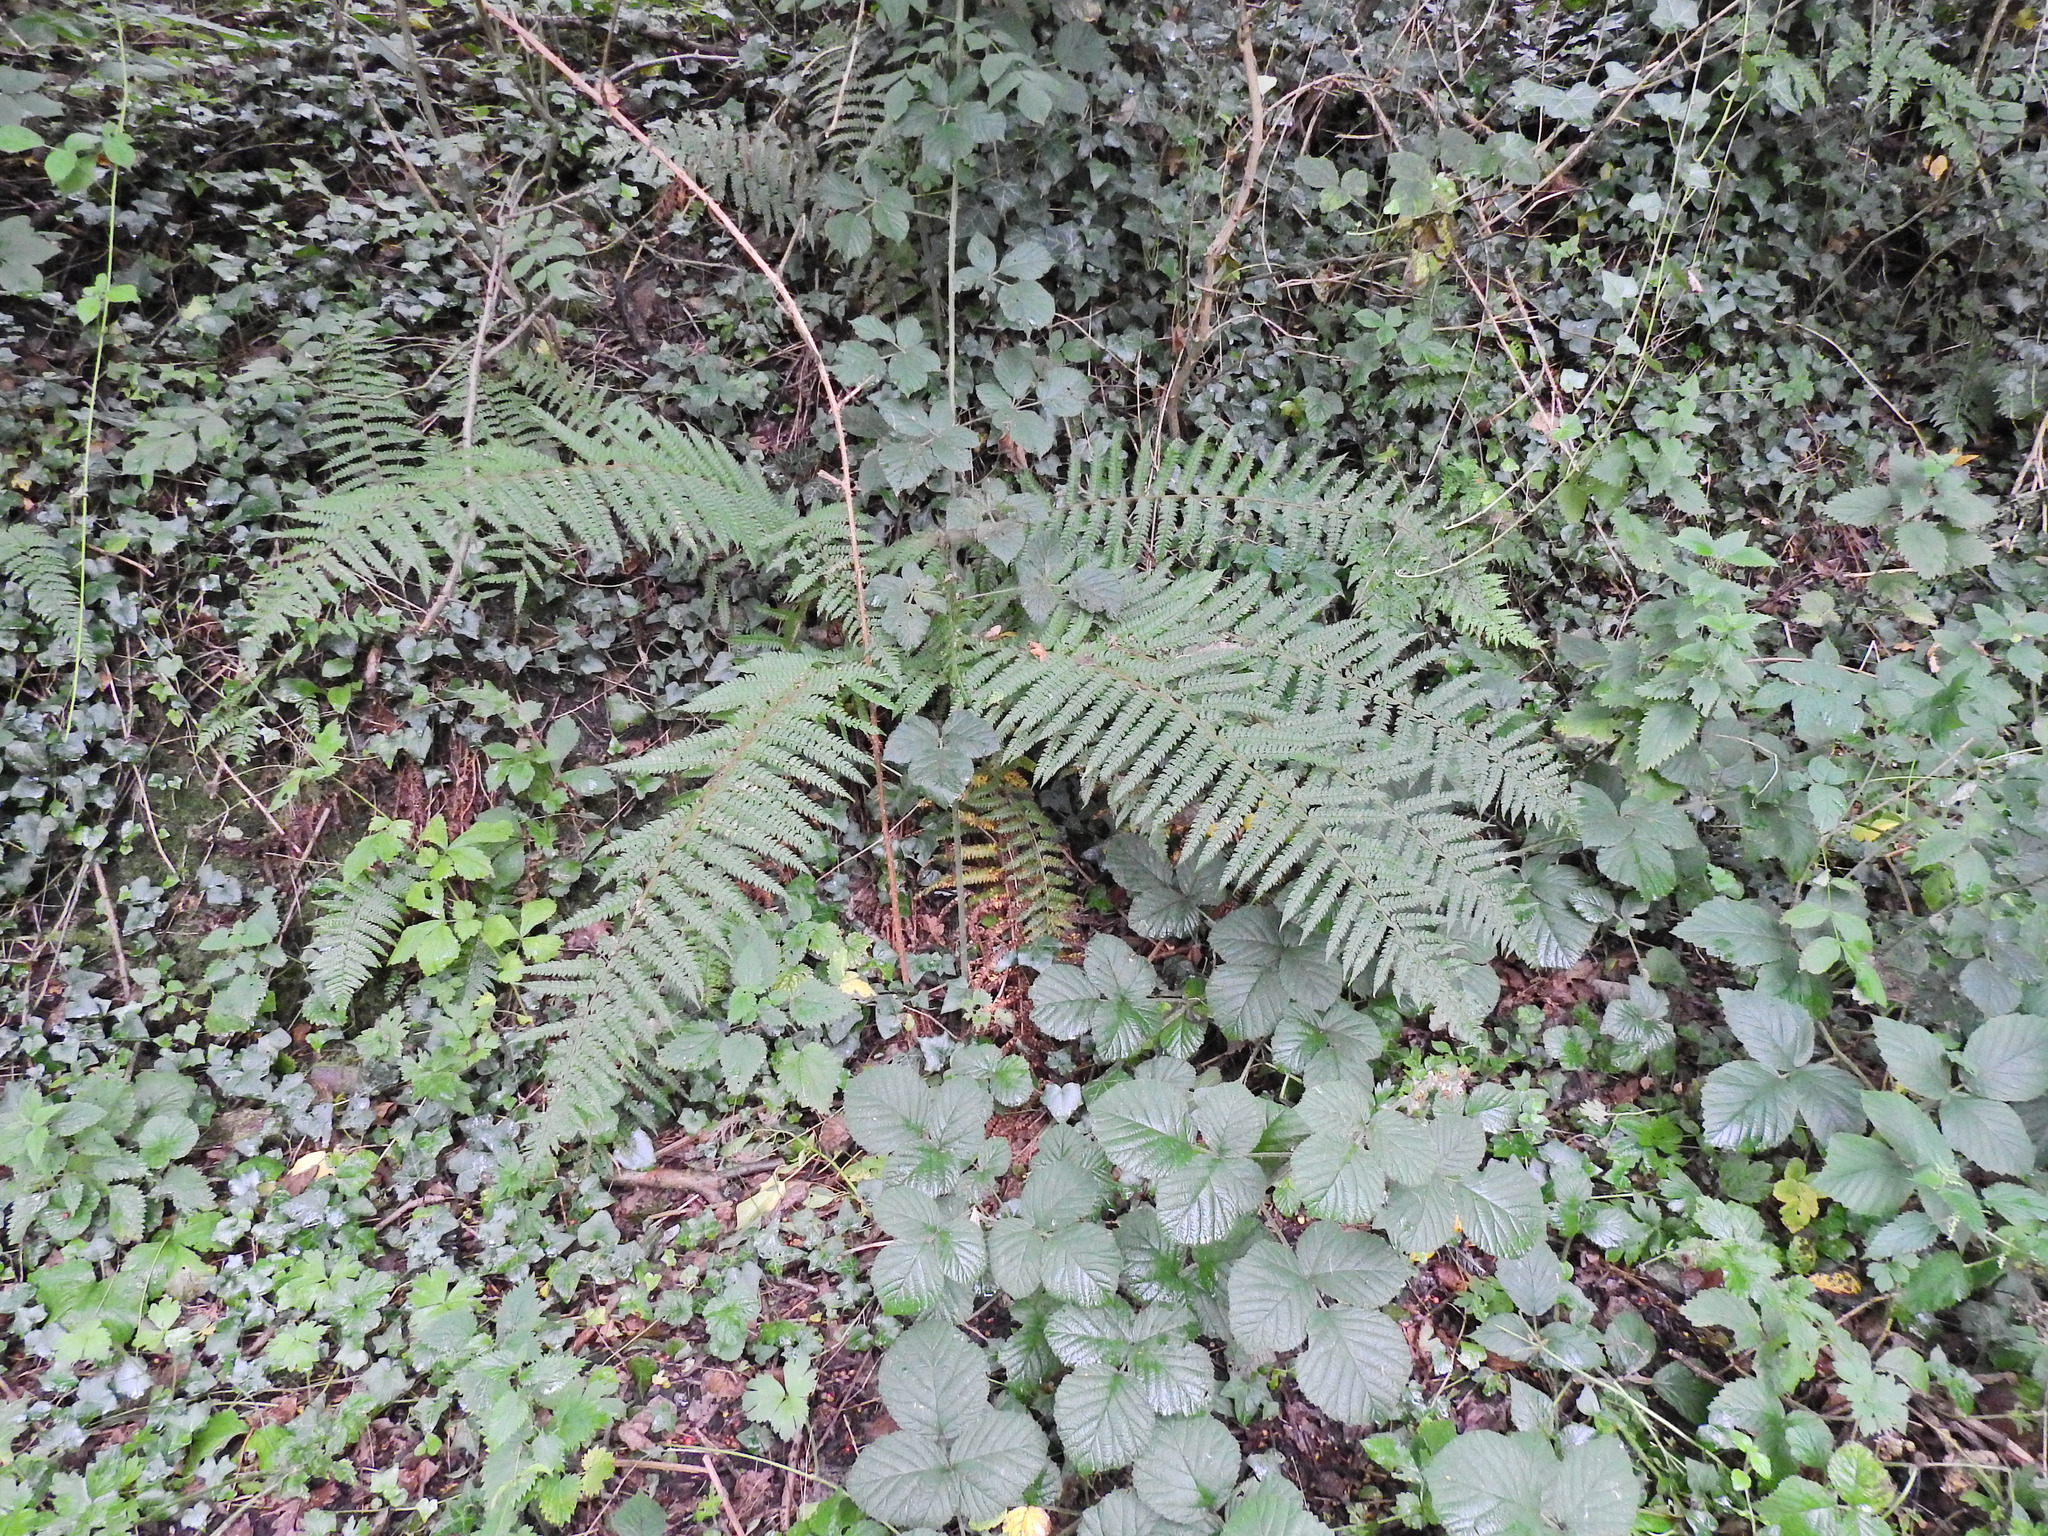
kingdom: Plantae
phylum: Tracheophyta
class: Polypodiopsida
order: Polypodiales
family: Dryopteridaceae
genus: Polystichum
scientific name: Polystichum setiferum
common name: Soft shield-fern
